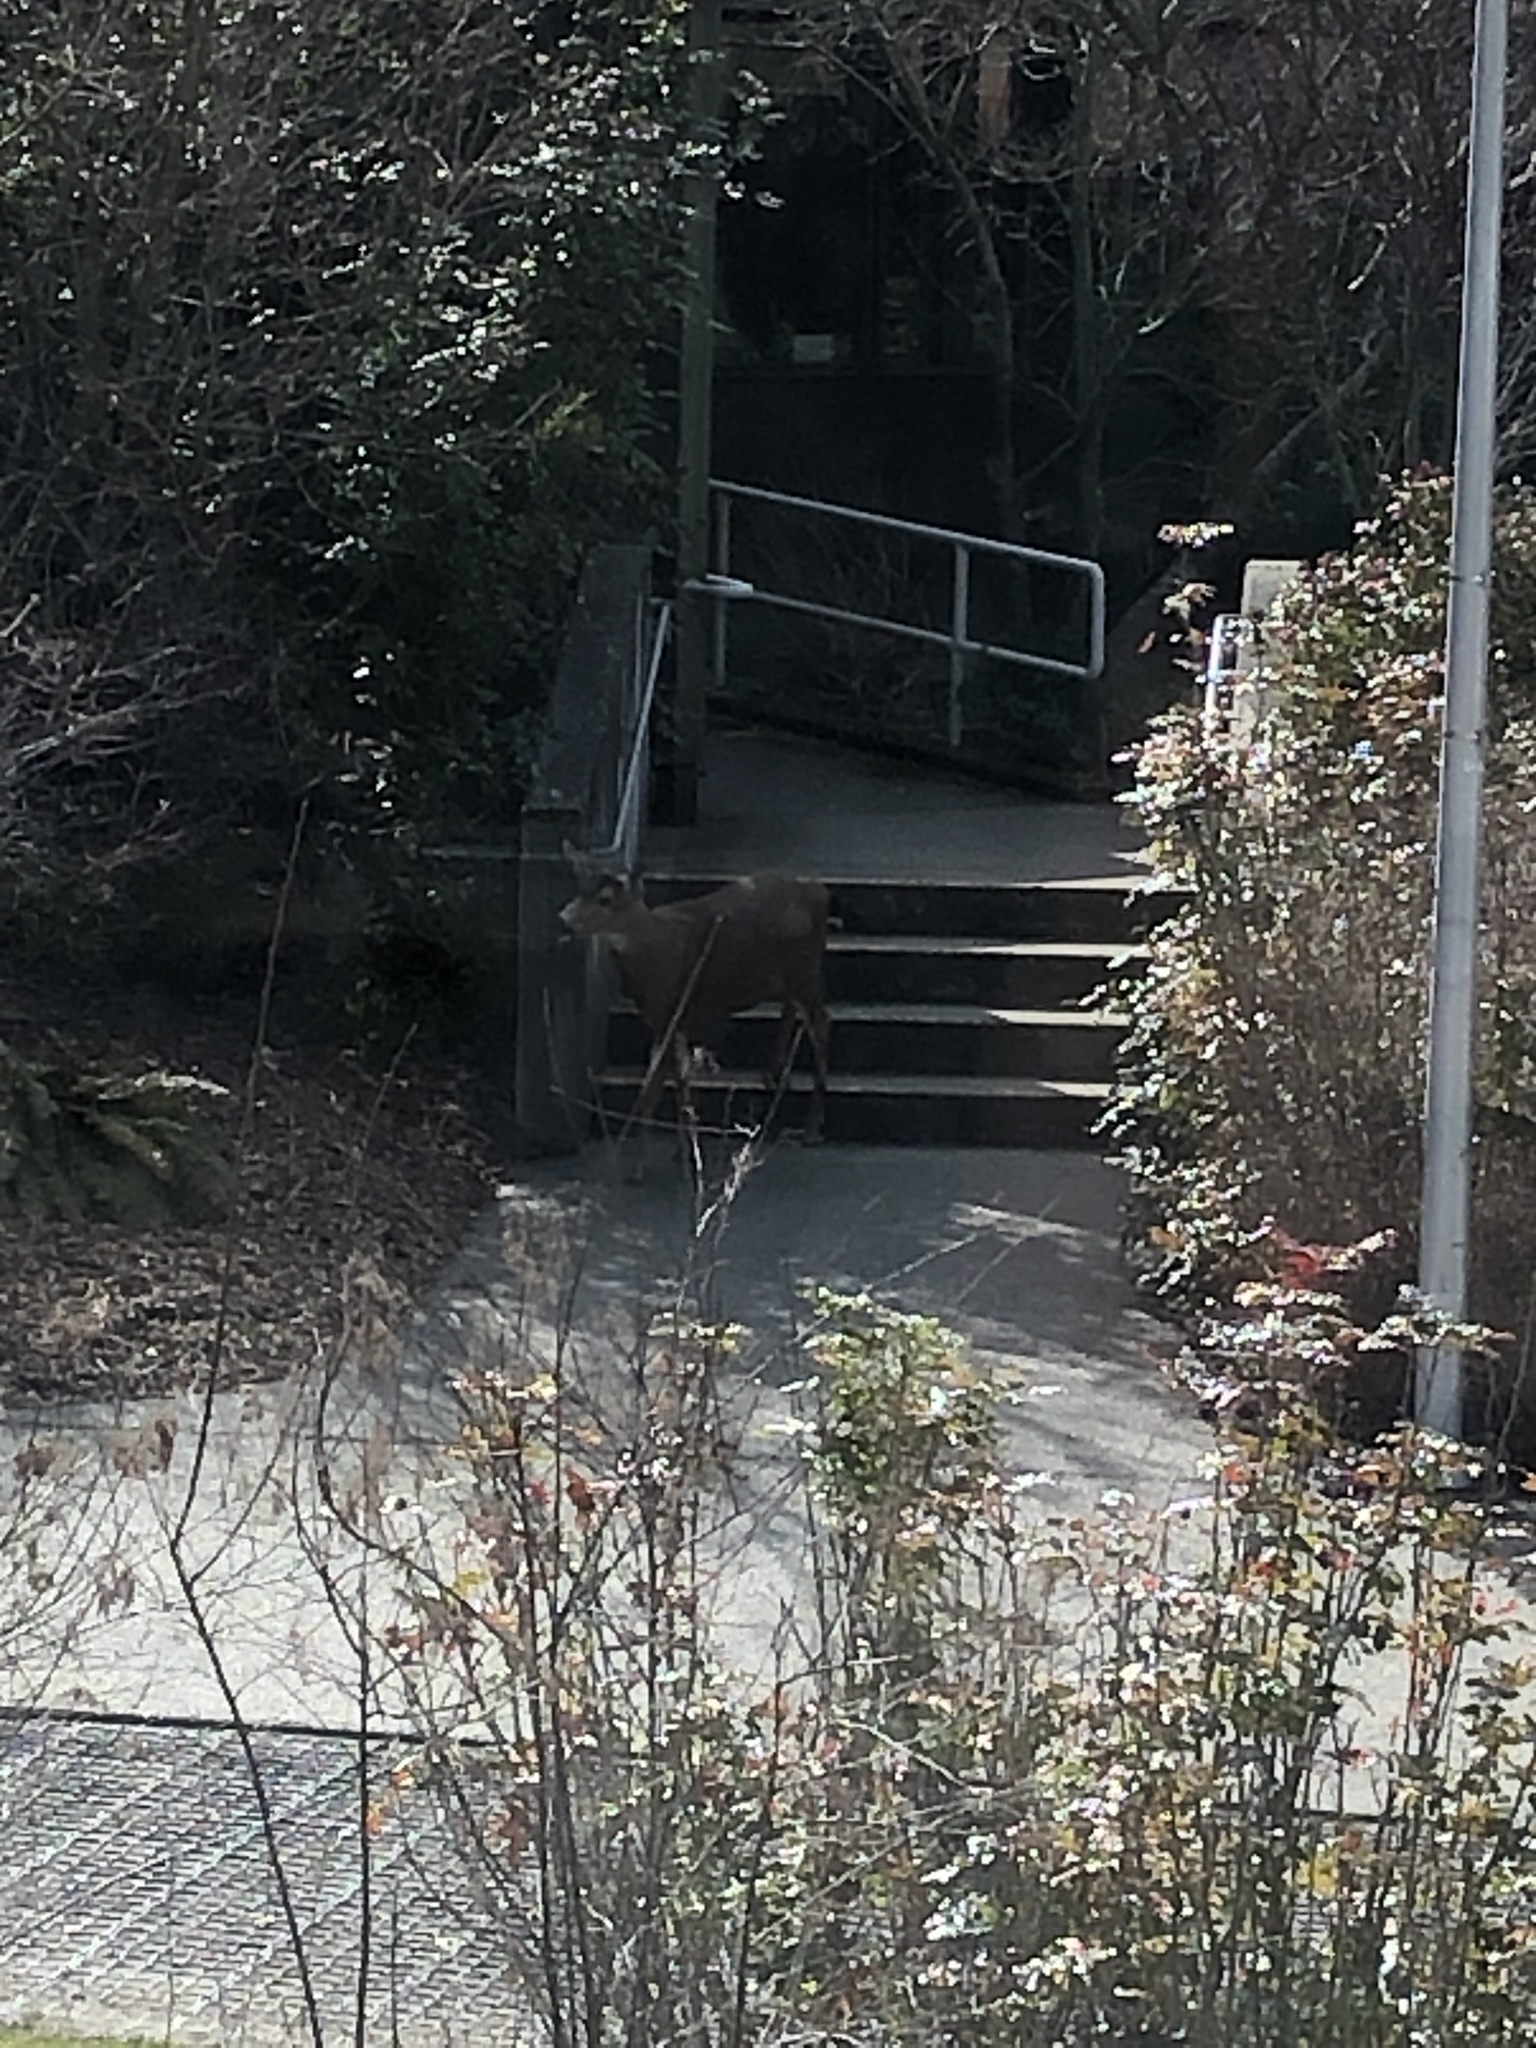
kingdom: Animalia
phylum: Chordata
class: Mammalia
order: Artiodactyla
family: Cervidae
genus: Odocoileus
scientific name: Odocoileus hemionus
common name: Mule deer
